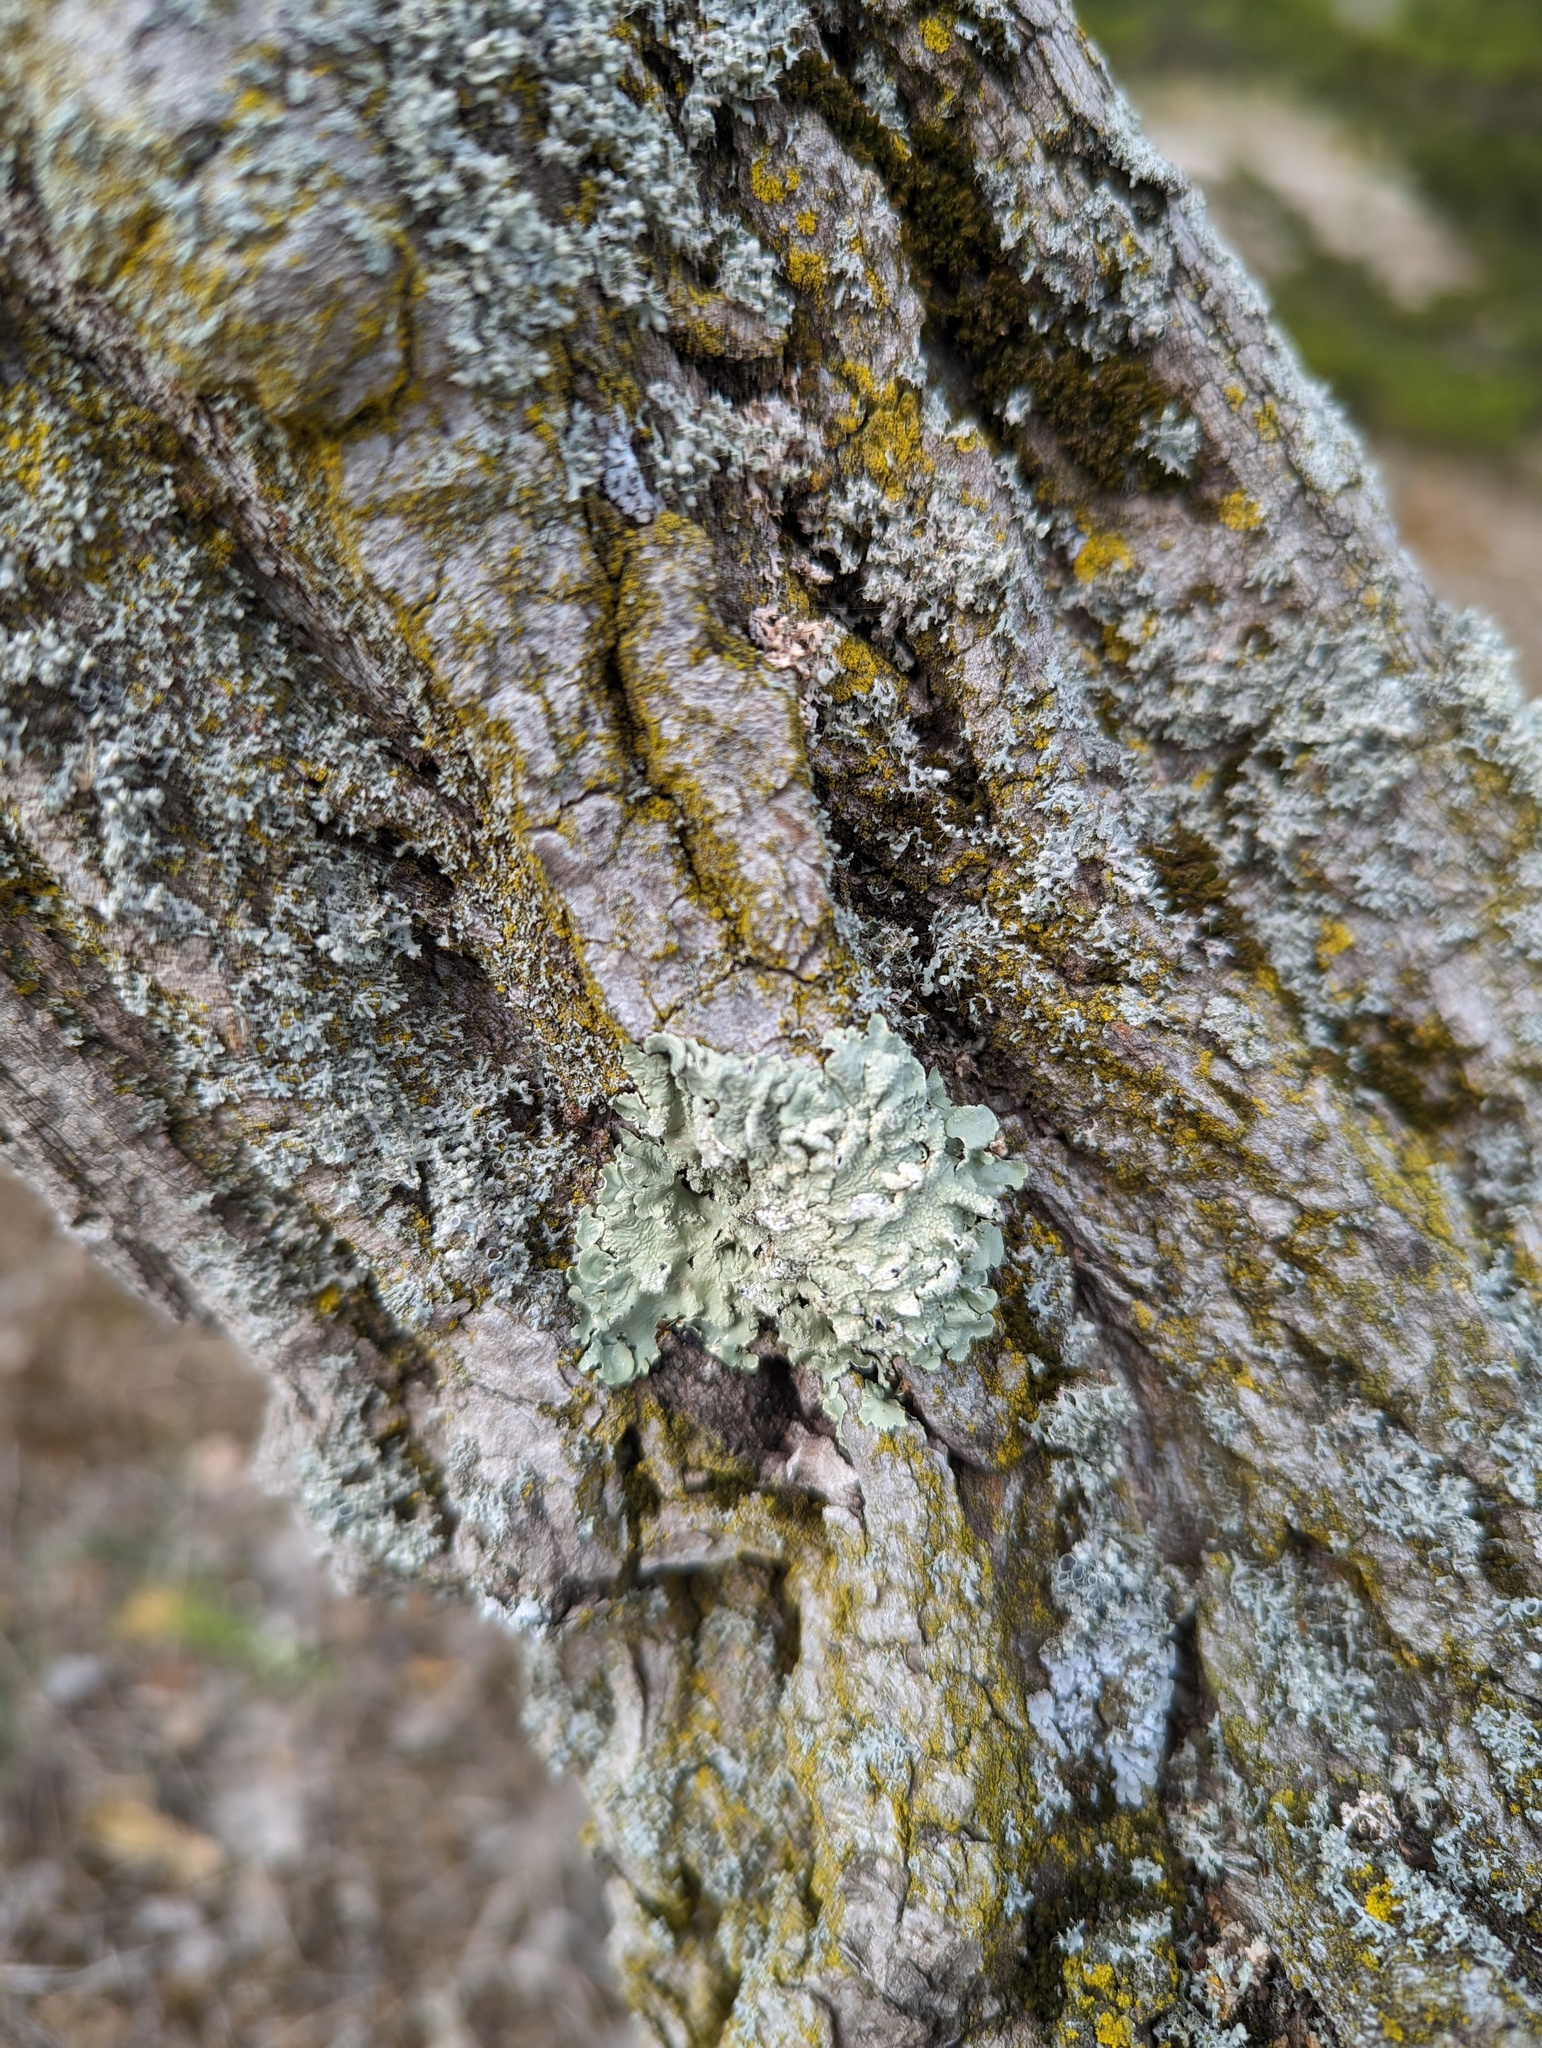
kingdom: Fungi
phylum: Ascomycota
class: Lecanoromycetes
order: Lecanorales
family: Parmeliaceae
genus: Flavoparmelia
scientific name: Flavoparmelia caperata
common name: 40-mile per hour lichen
